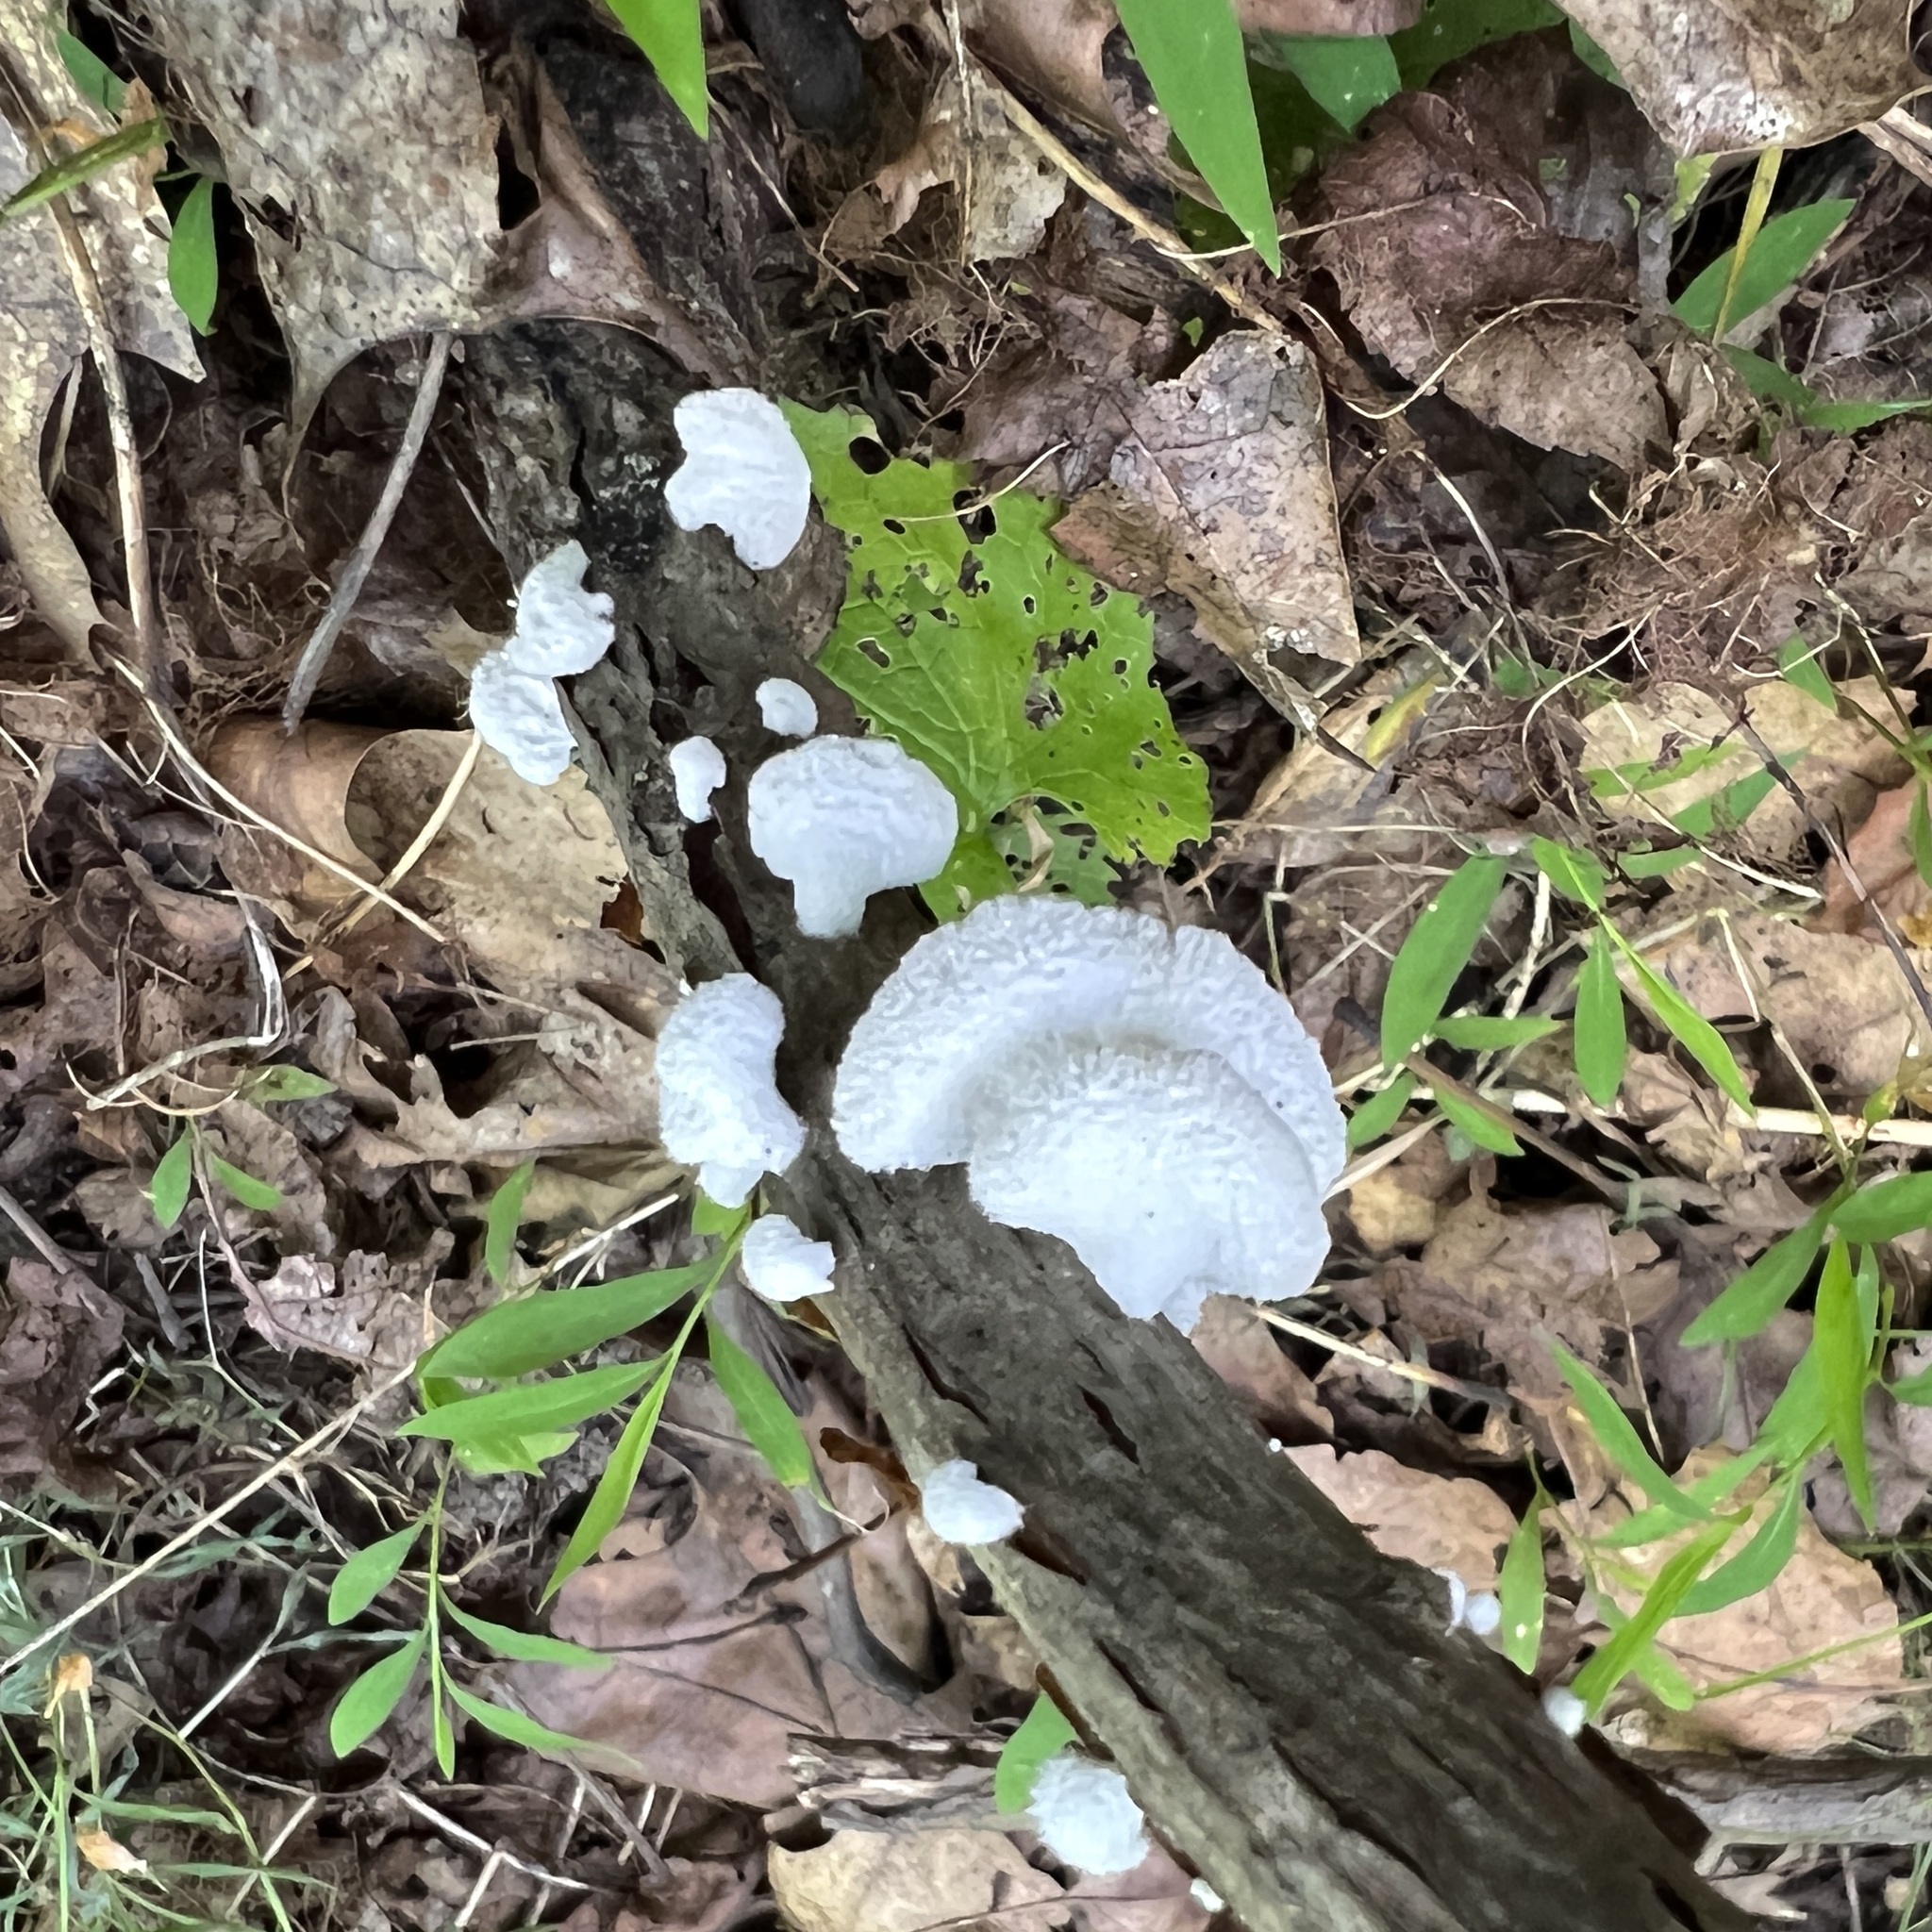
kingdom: Fungi
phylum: Basidiomycota
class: Agaricomycetes
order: Agaricales
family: Schizophyllaceae
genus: Schizophyllum
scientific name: Schizophyllum commune
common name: Common porecrust
